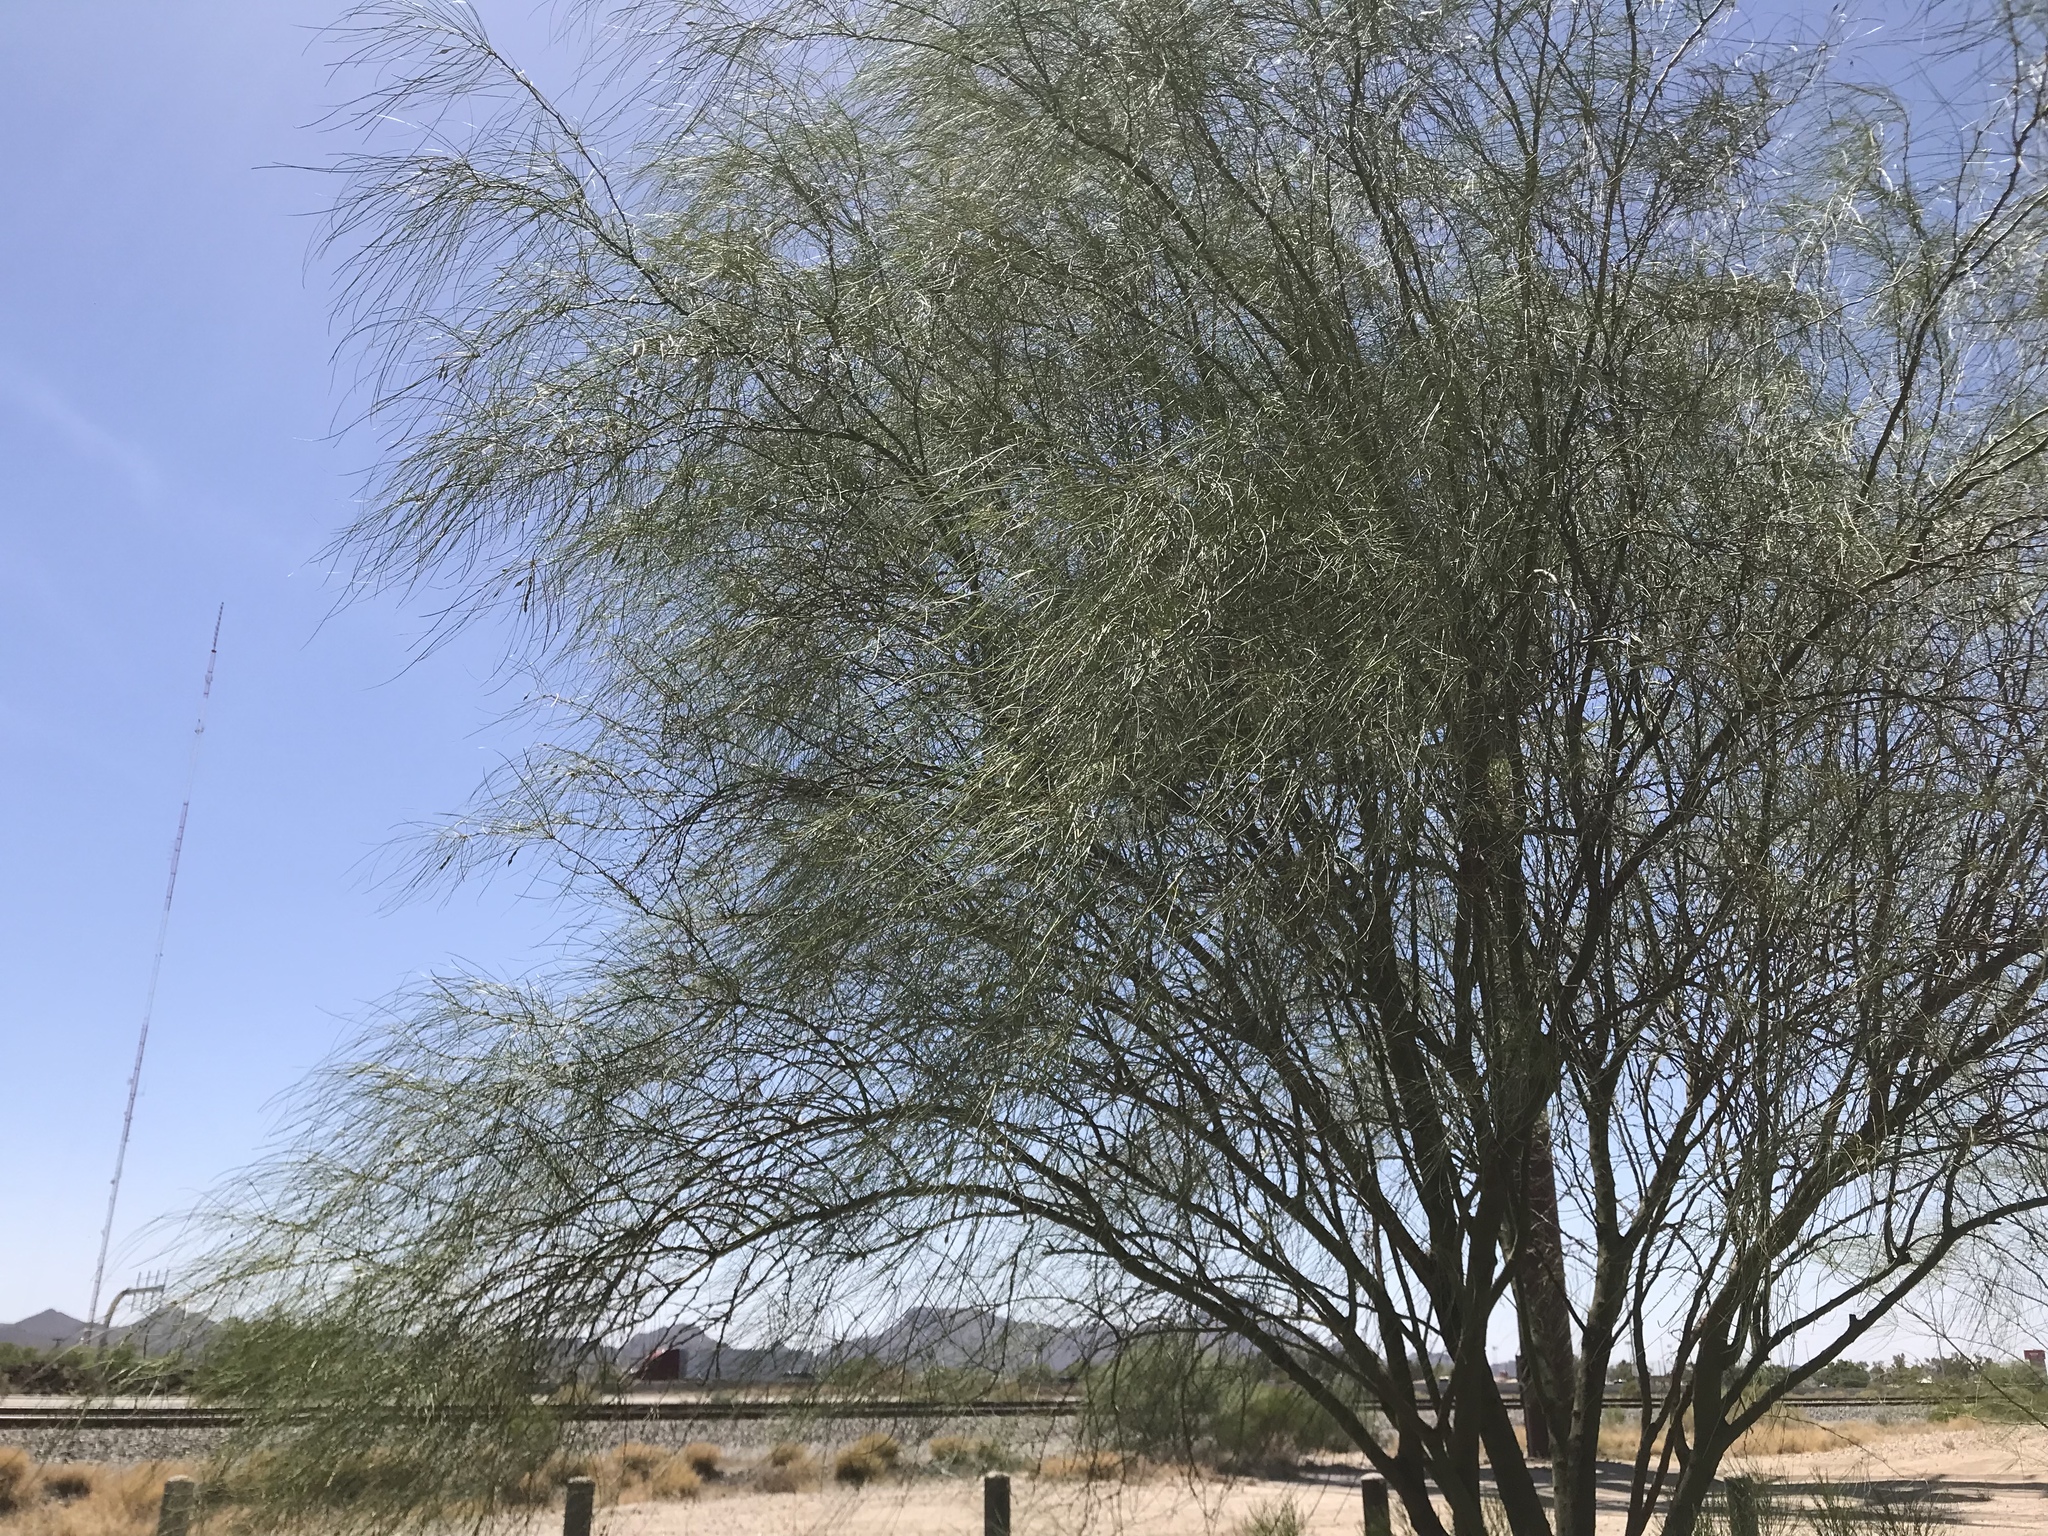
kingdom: Plantae
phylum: Tracheophyta
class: Magnoliopsida
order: Fabales
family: Fabaceae
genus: Parkinsonia
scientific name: Parkinsonia aculeata
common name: Jerusalem thorn
